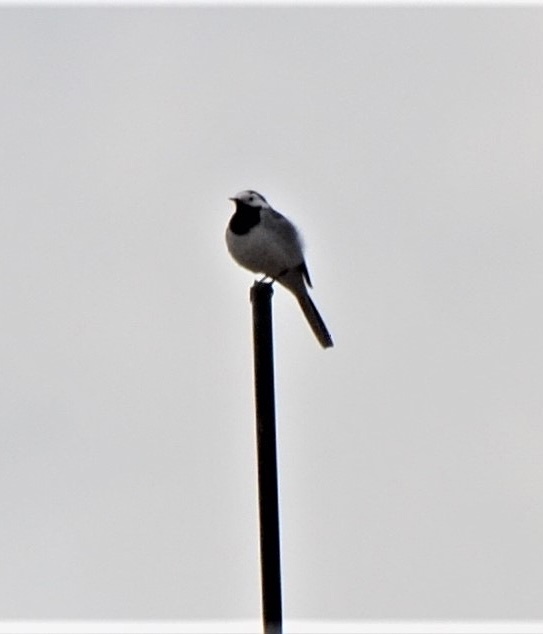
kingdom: Animalia
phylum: Chordata
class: Aves
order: Passeriformes
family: Motacillidae
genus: Motacilla
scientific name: Motacilla alba
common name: White wagtail
